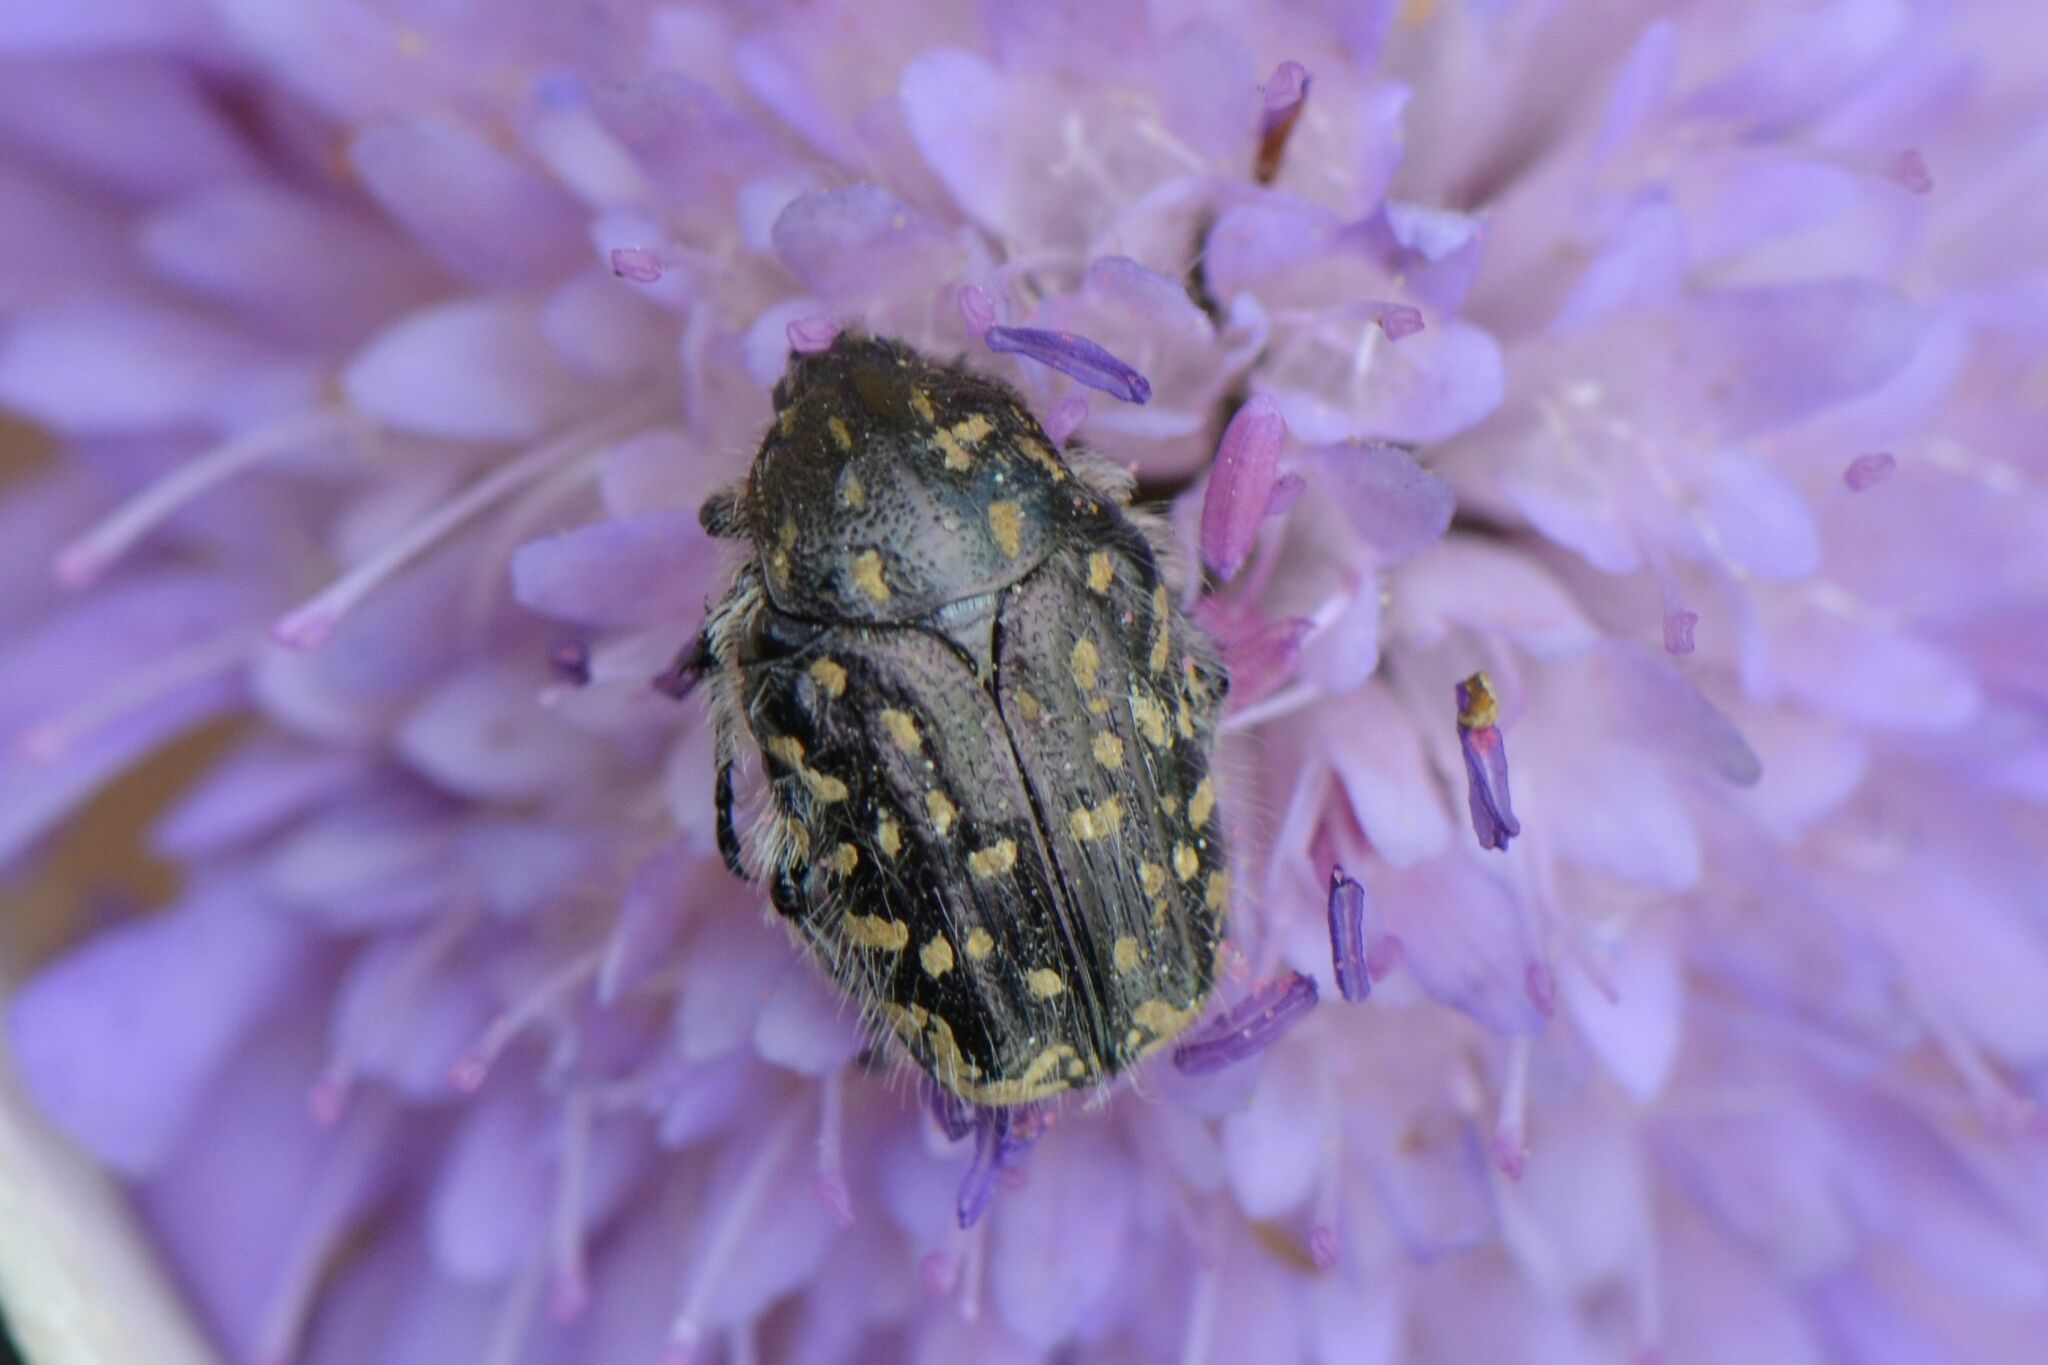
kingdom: Animalia
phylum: Arthropoda
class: Insecta
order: Coleoptera
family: Scarabaeidae
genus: Oxythyrea
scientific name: Oxythyrea funesta
